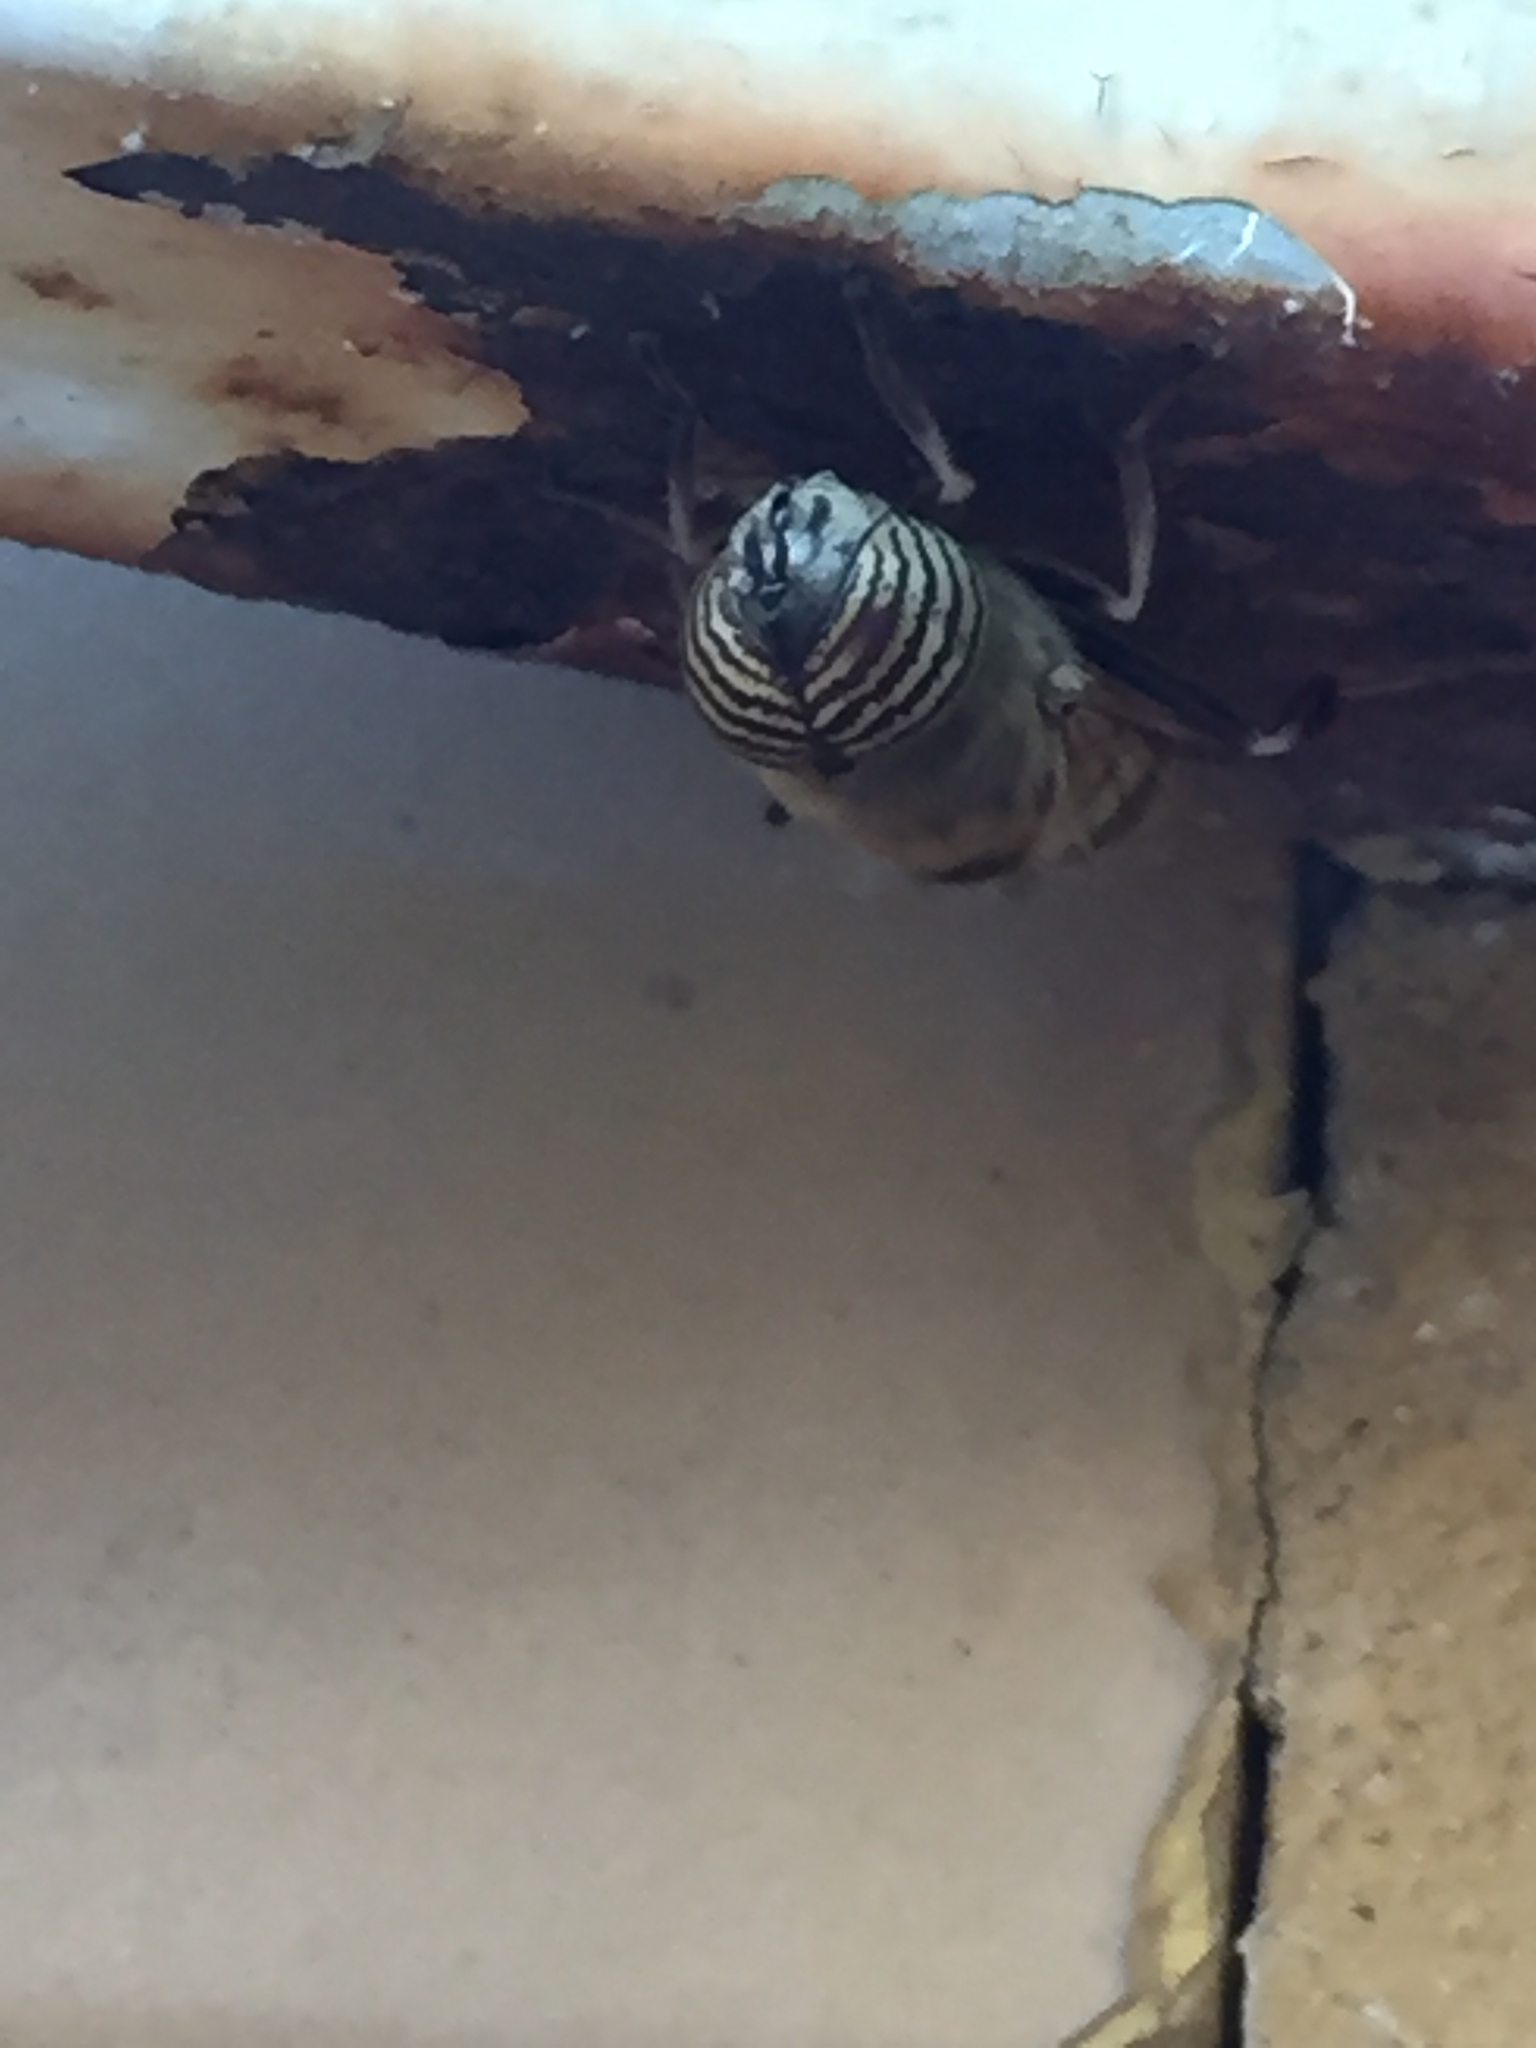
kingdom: Animalia
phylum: Arthropoda
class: Insecta
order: Diptera
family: Syrphidae
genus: Eristalinus
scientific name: Eristalinus taeniops
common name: Syrphid fly
